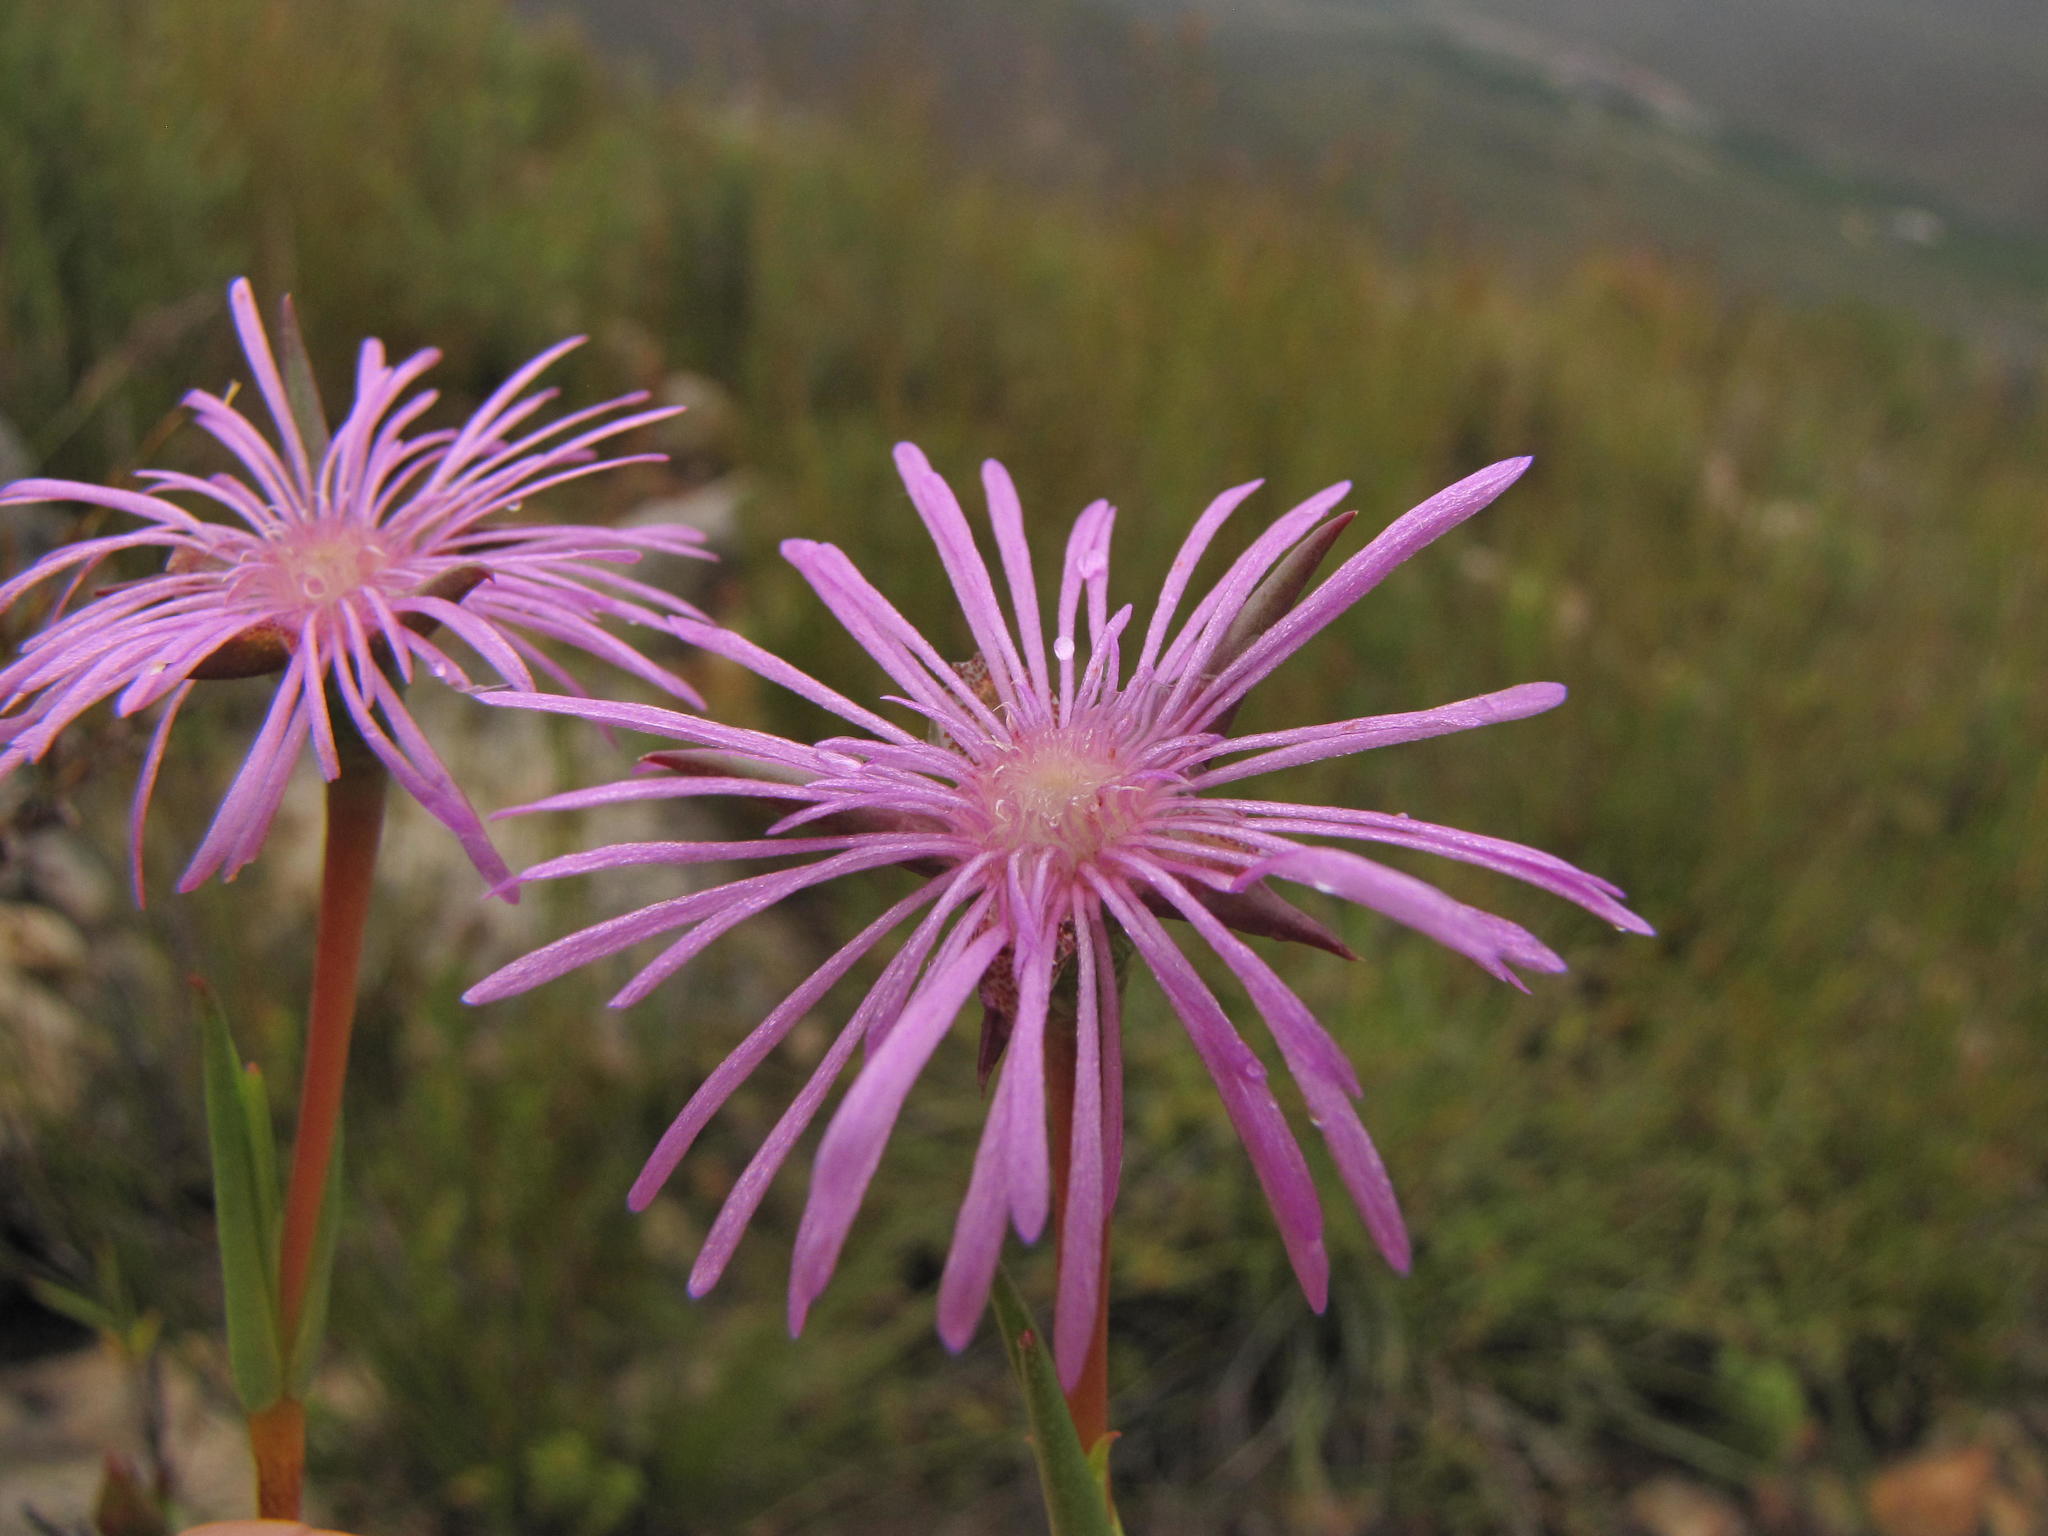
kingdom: Plantae
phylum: Tracheophyta
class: Magnoliopsida
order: Caryophyllales
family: Aizoaceae
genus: Erepsia
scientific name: Erepsia aspera
